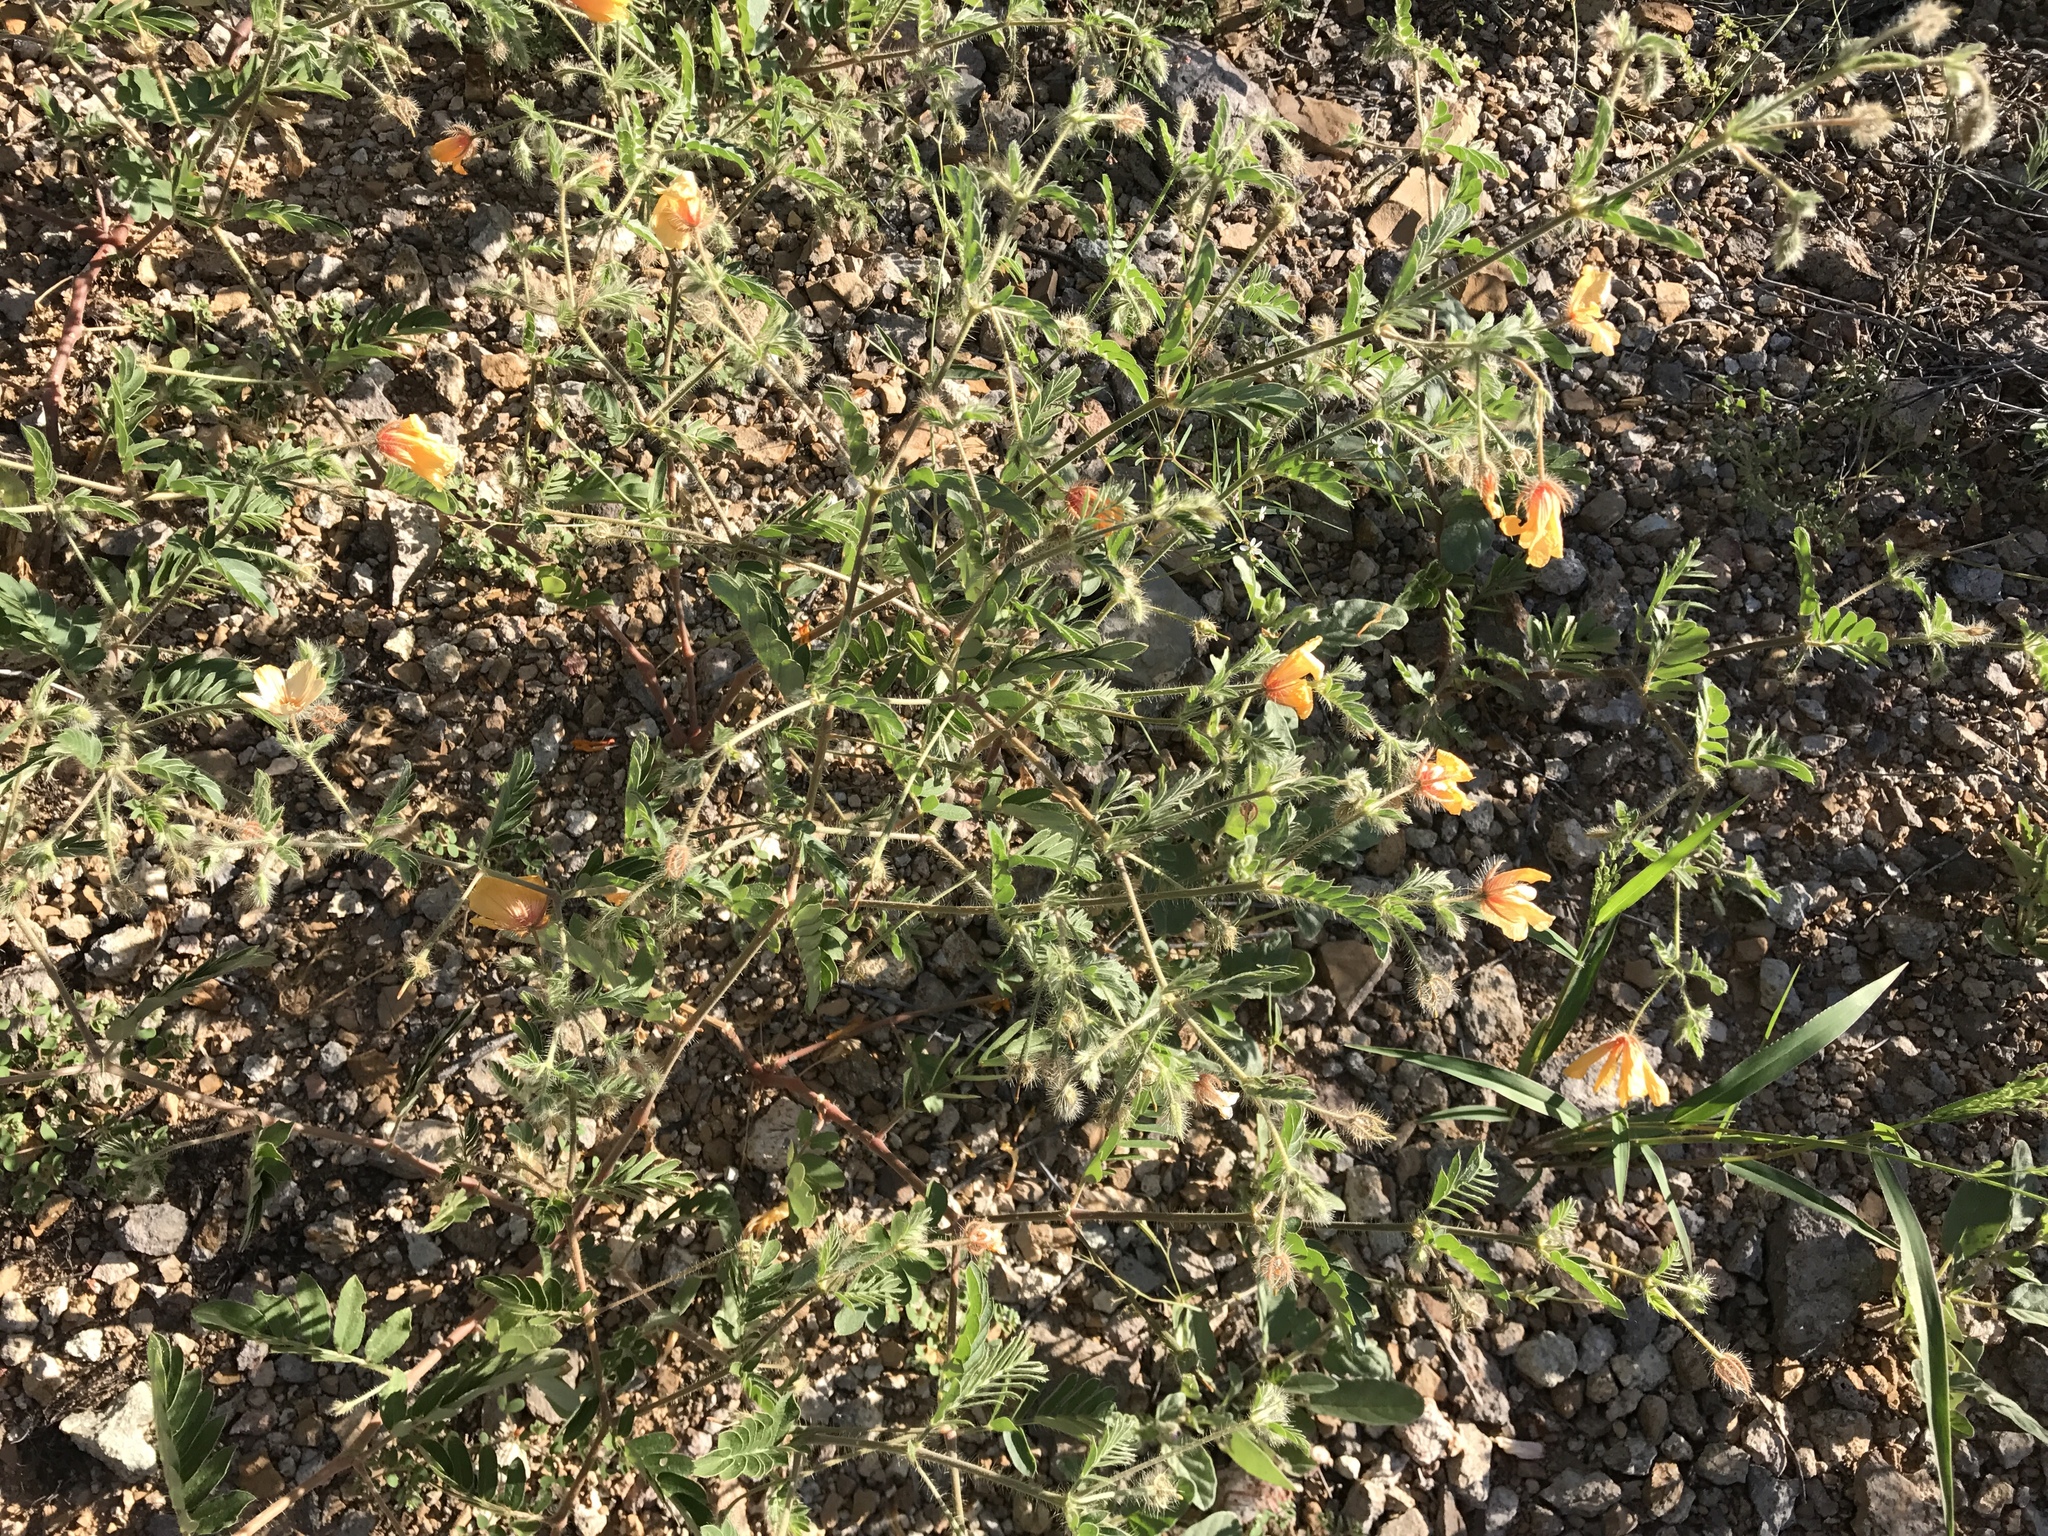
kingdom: Plantae
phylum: Tracheophyta
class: Magnoliopsida
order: Zygophyllales
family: Zygophyllaceae
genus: Kallstroemia
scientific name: Kallstroemia grandiflora
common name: Arizona-poppy
